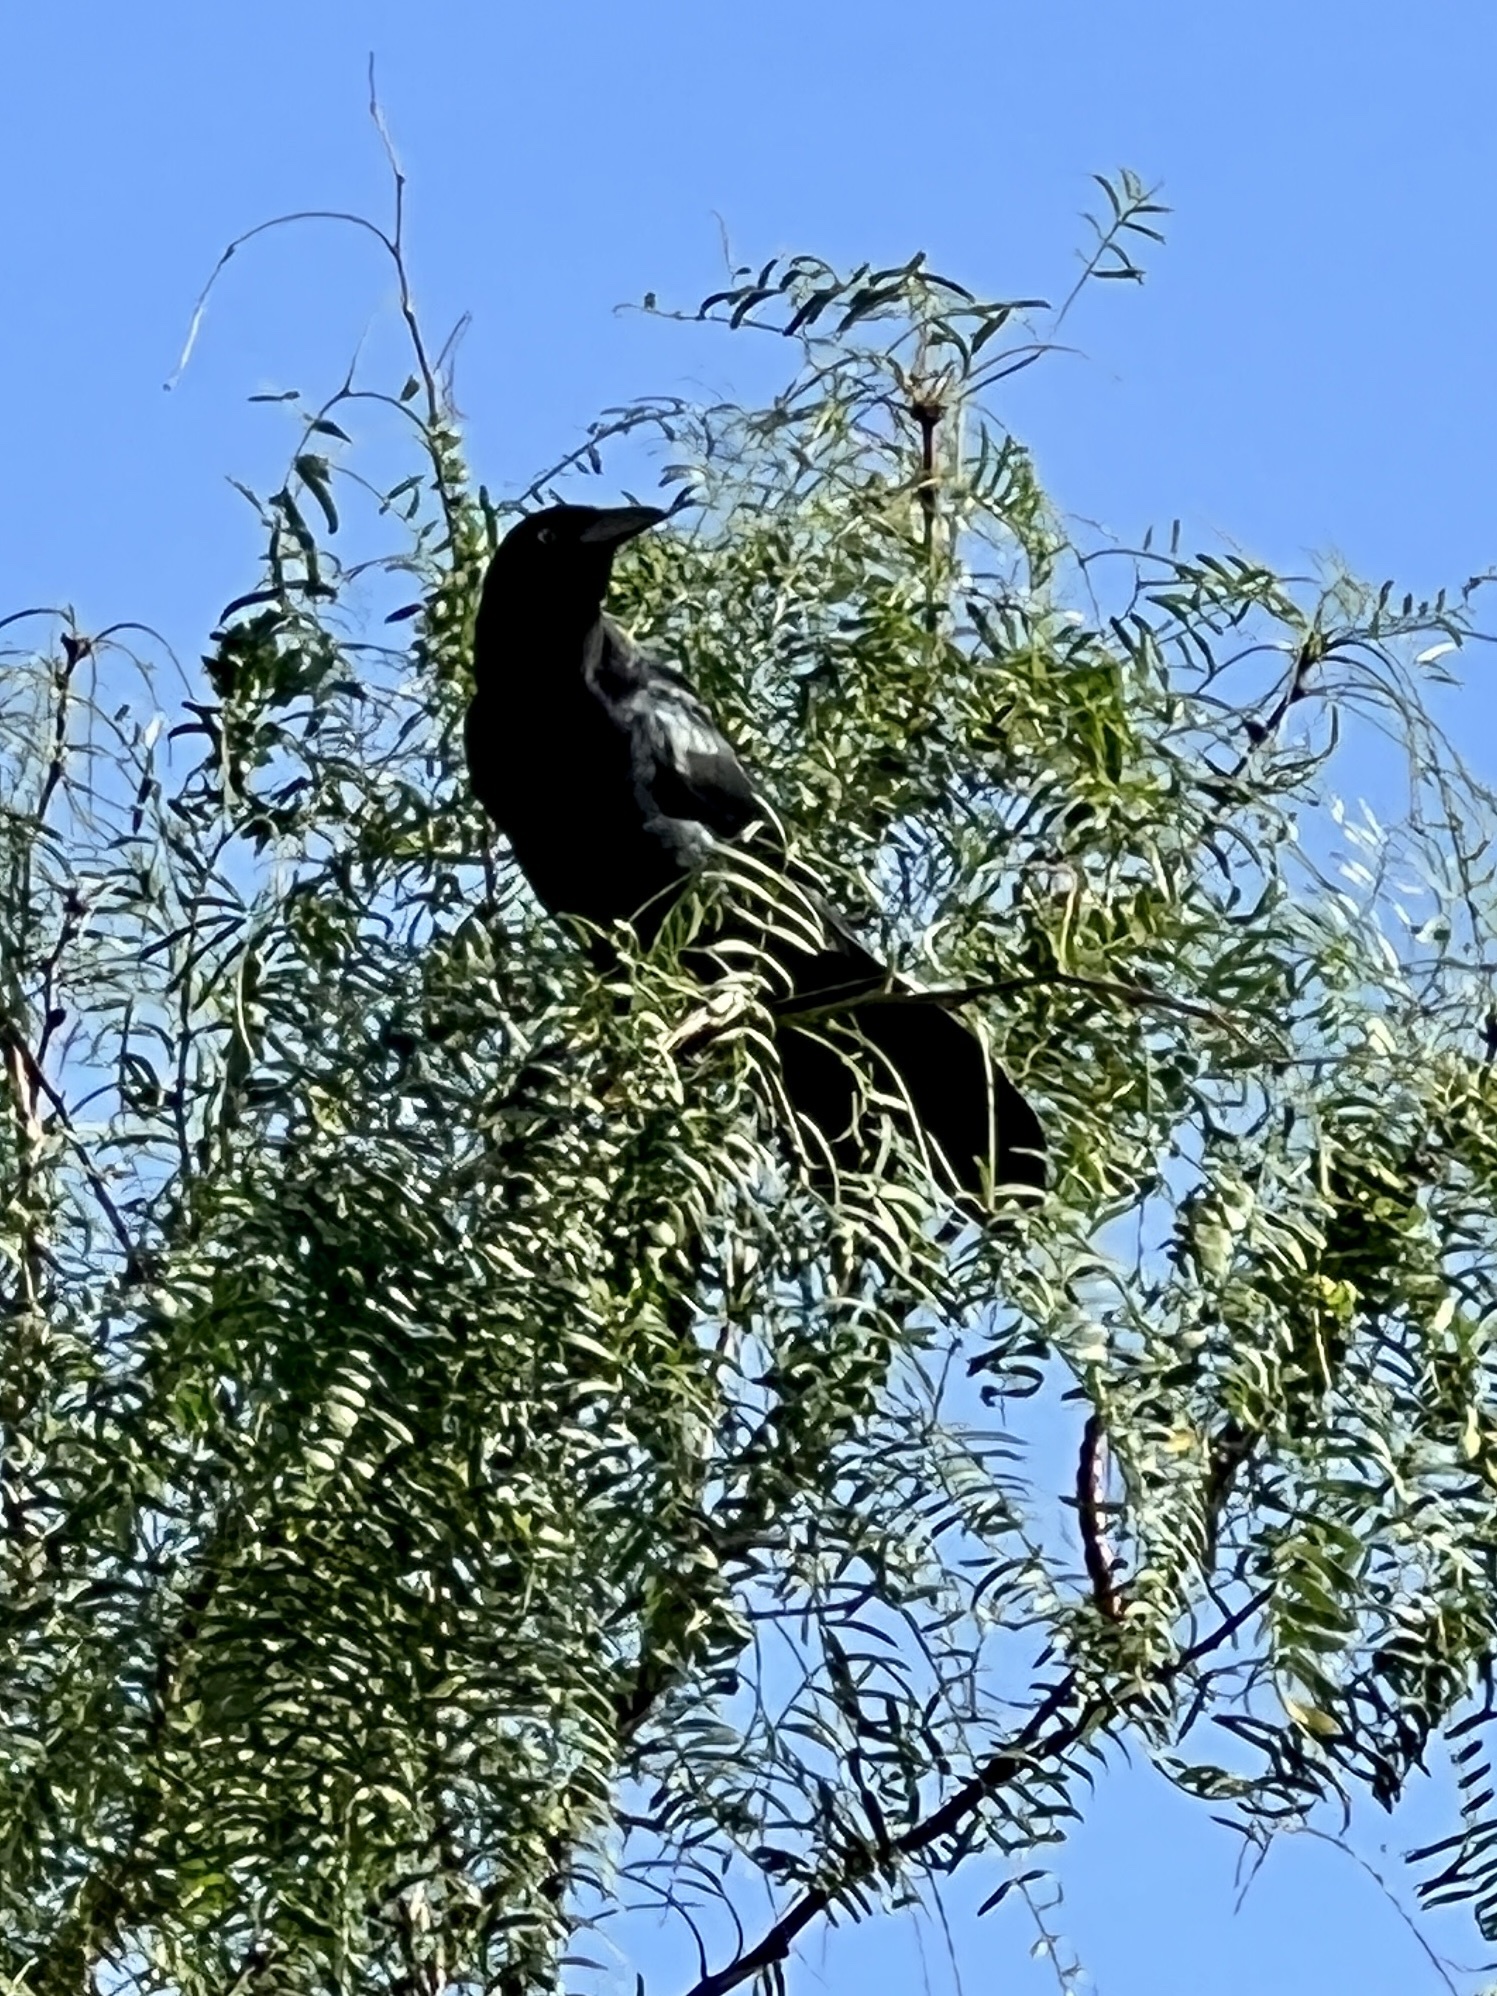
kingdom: Animalia
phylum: Chordata
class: Aves
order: Passeriformes
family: Icteridae
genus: Quiscalus
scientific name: Quiscalus mexicanus
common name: Great-tailed grackle
